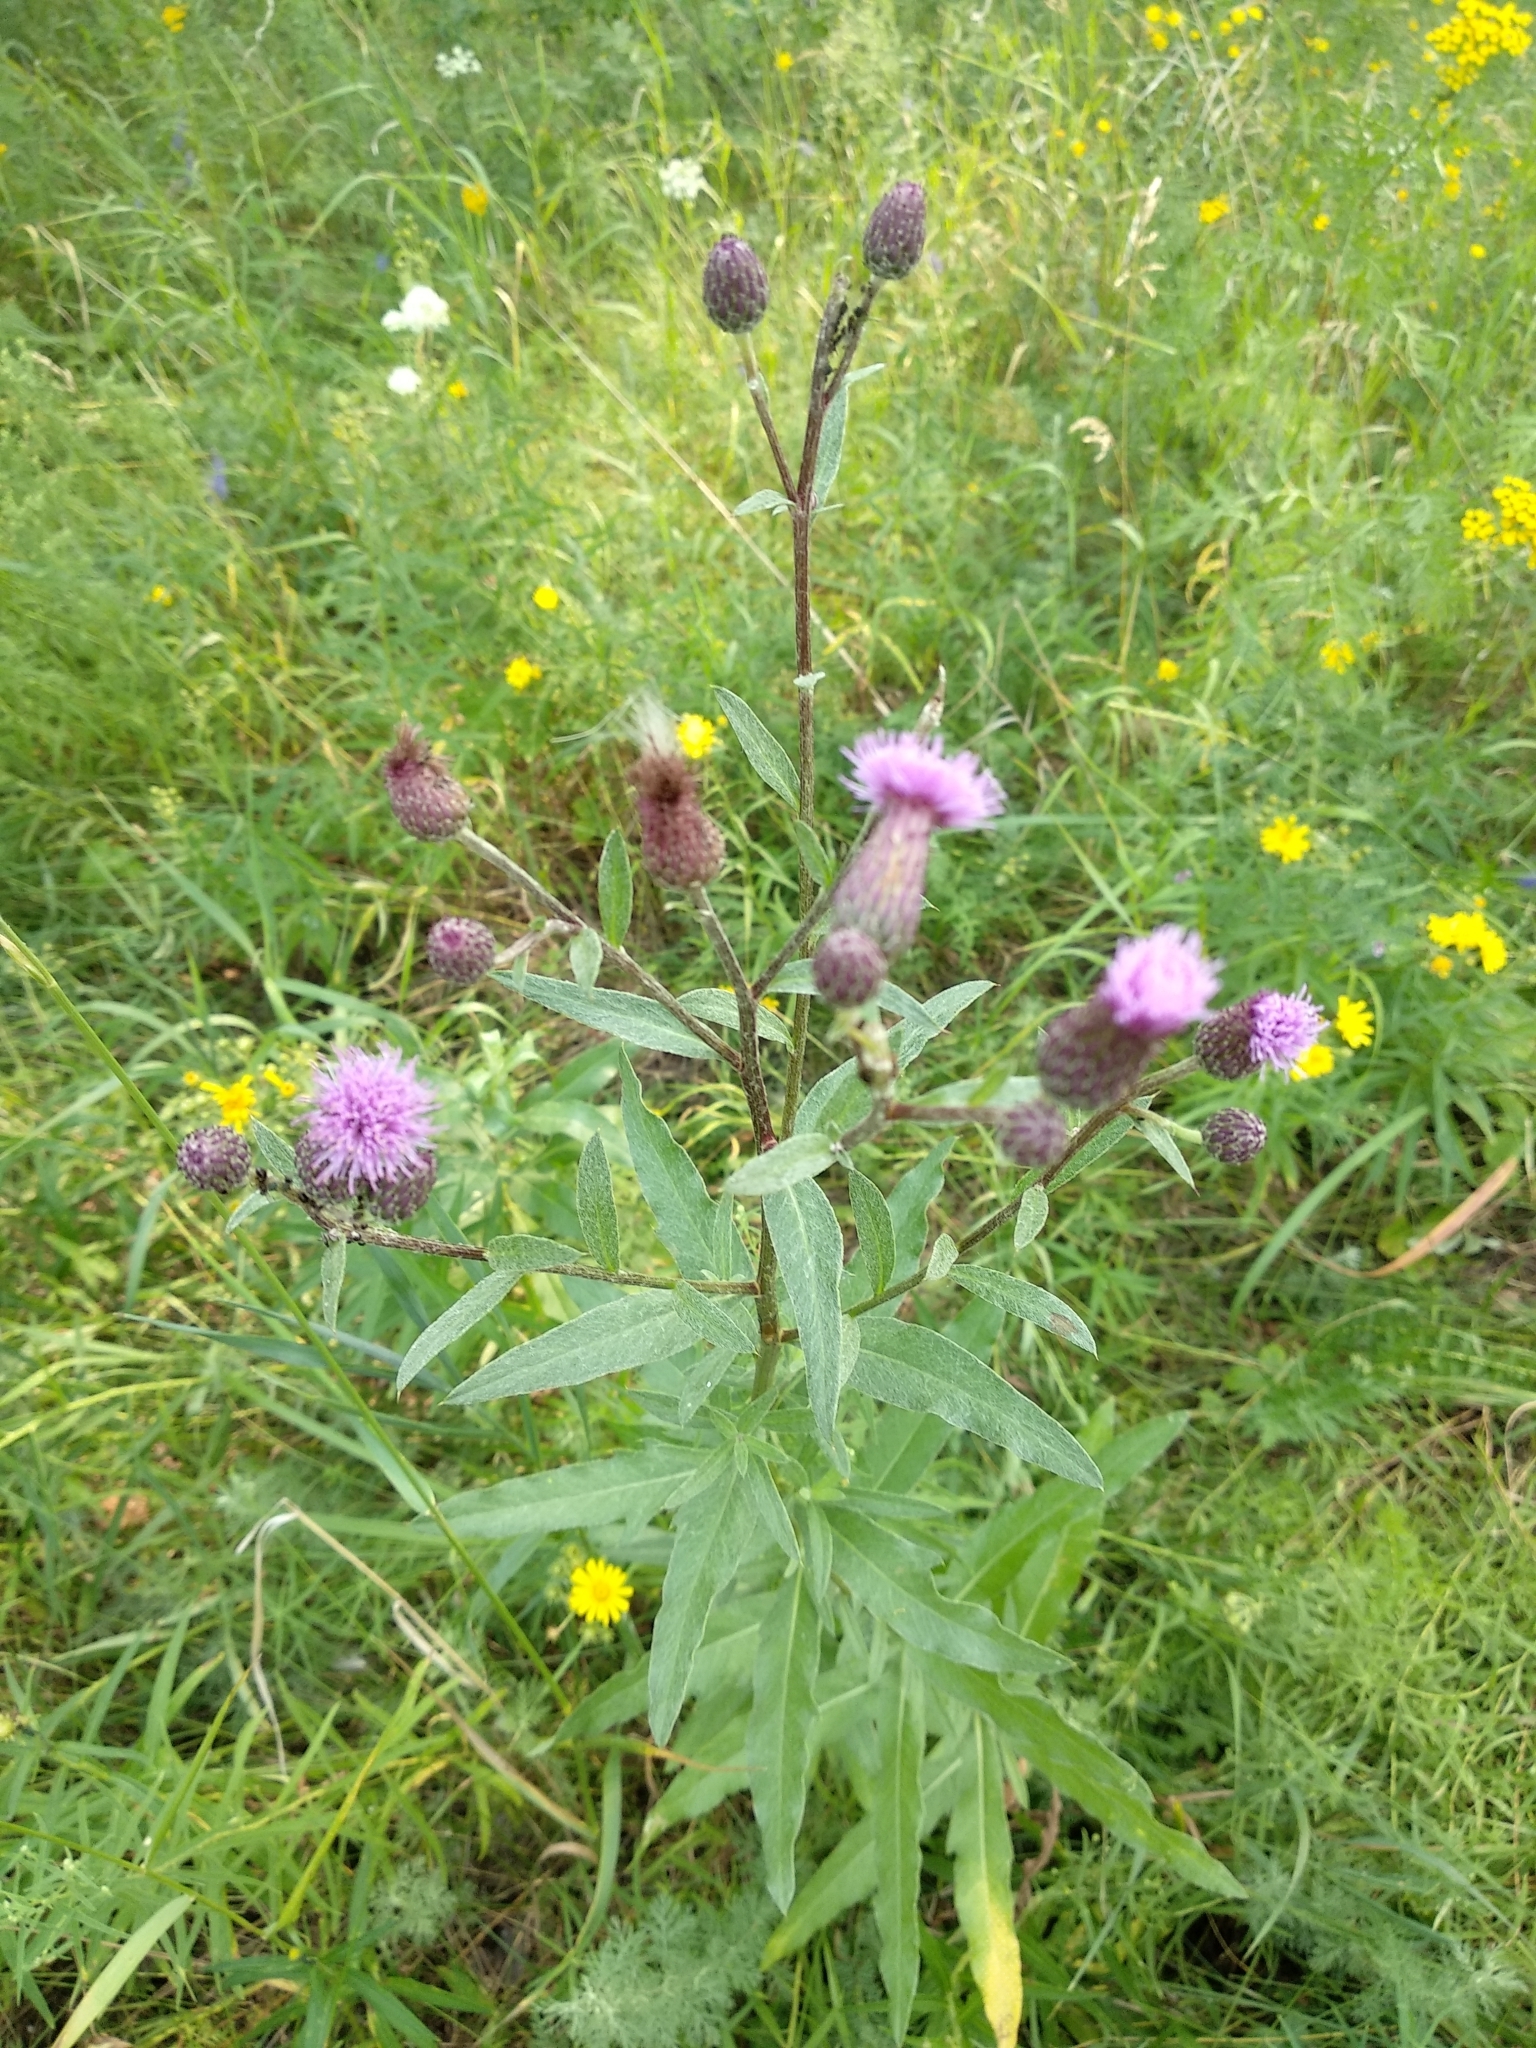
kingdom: Plantae
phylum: Tracheophyta
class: Magnoliopsida
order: Asterales
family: Asteraceae
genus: Cirsium
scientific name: Cirsium arvense
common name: Creeping thistle
